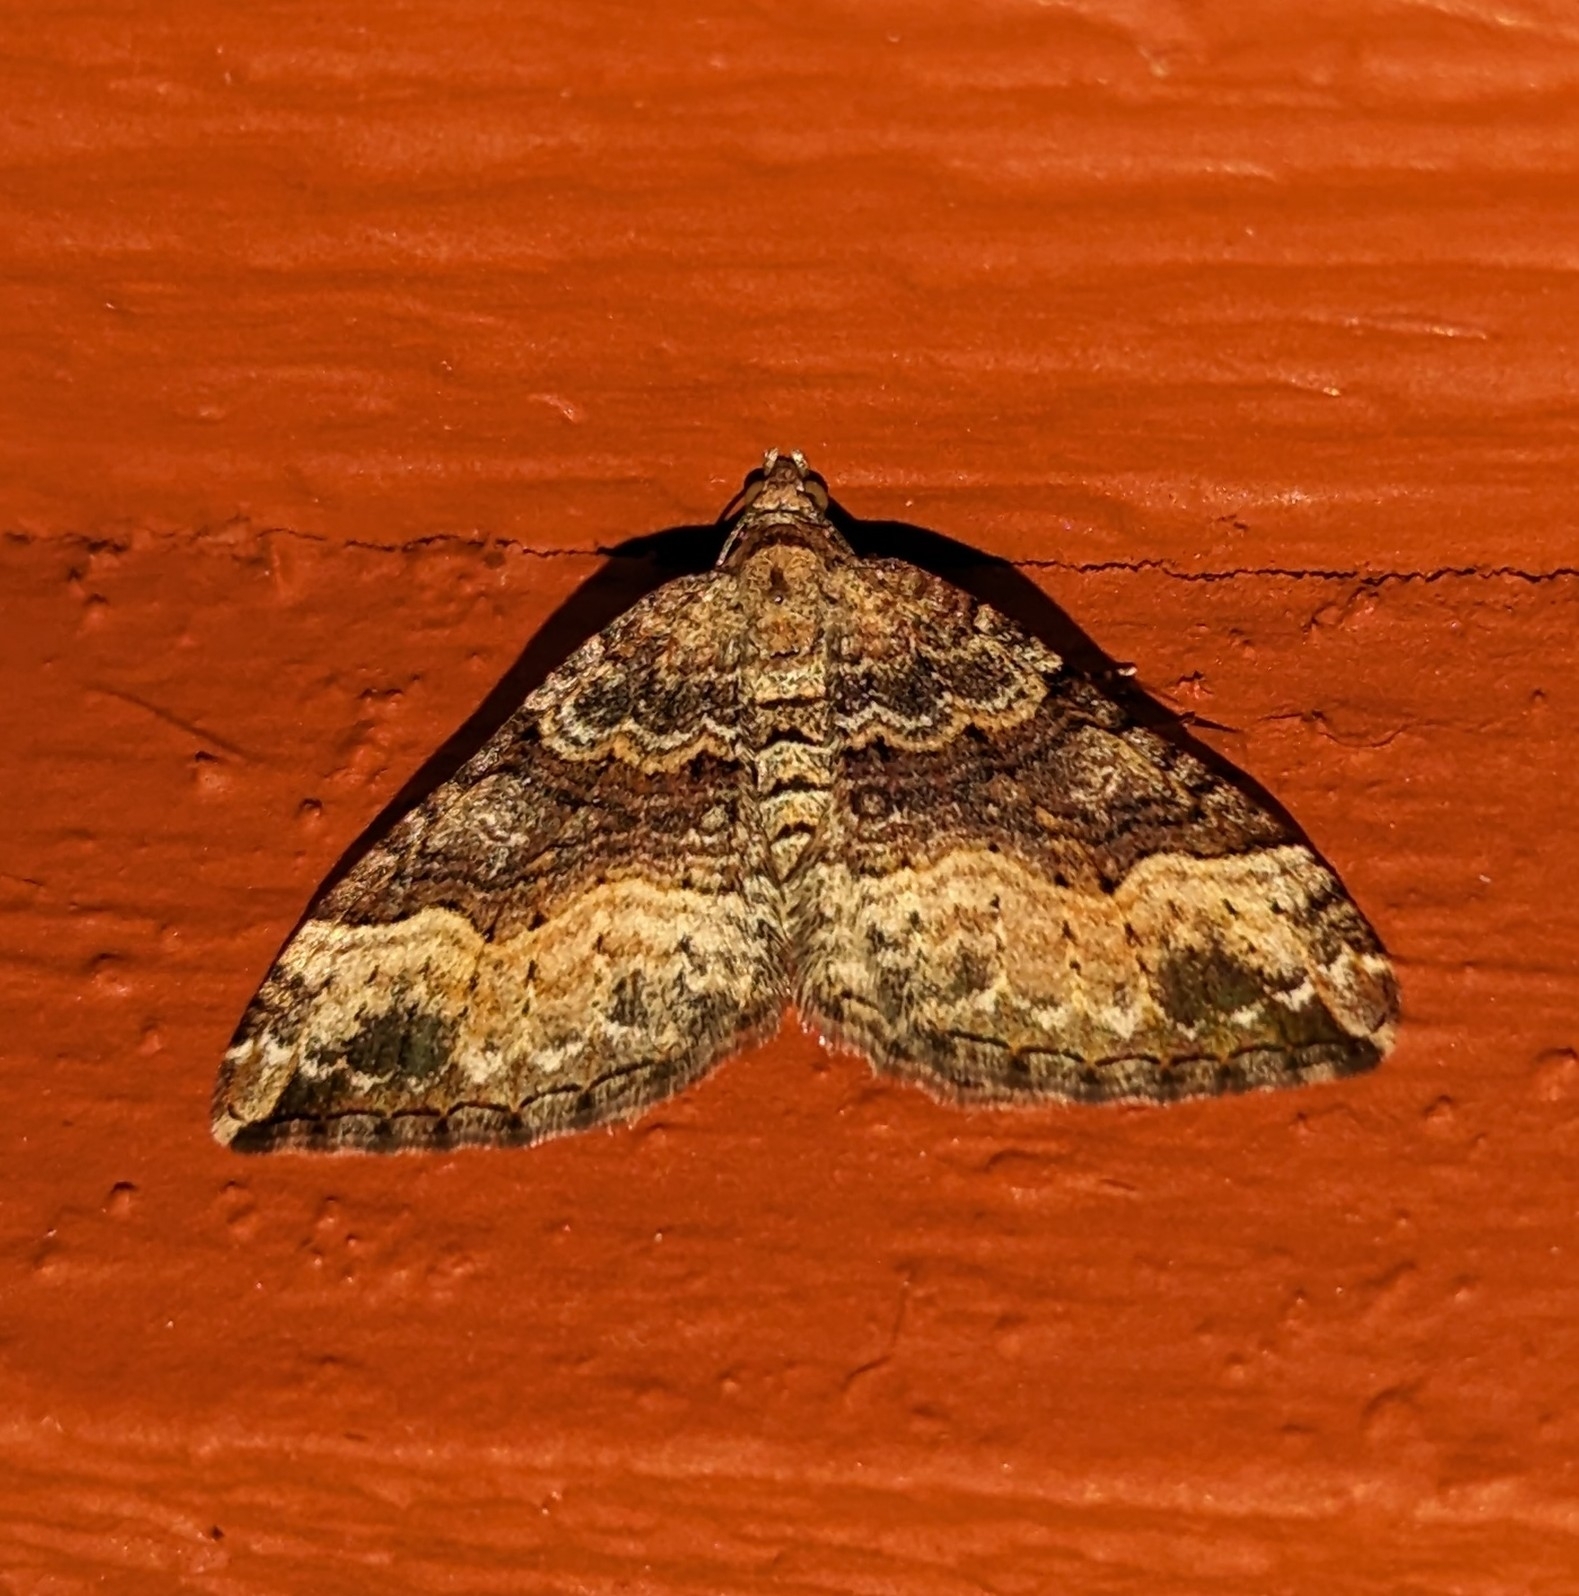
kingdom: Animalia
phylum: Arthropoda
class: Insecta
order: Lepidoptera
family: Geometridae
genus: Xanthorhoe
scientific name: Xanthorhoe defensaria
